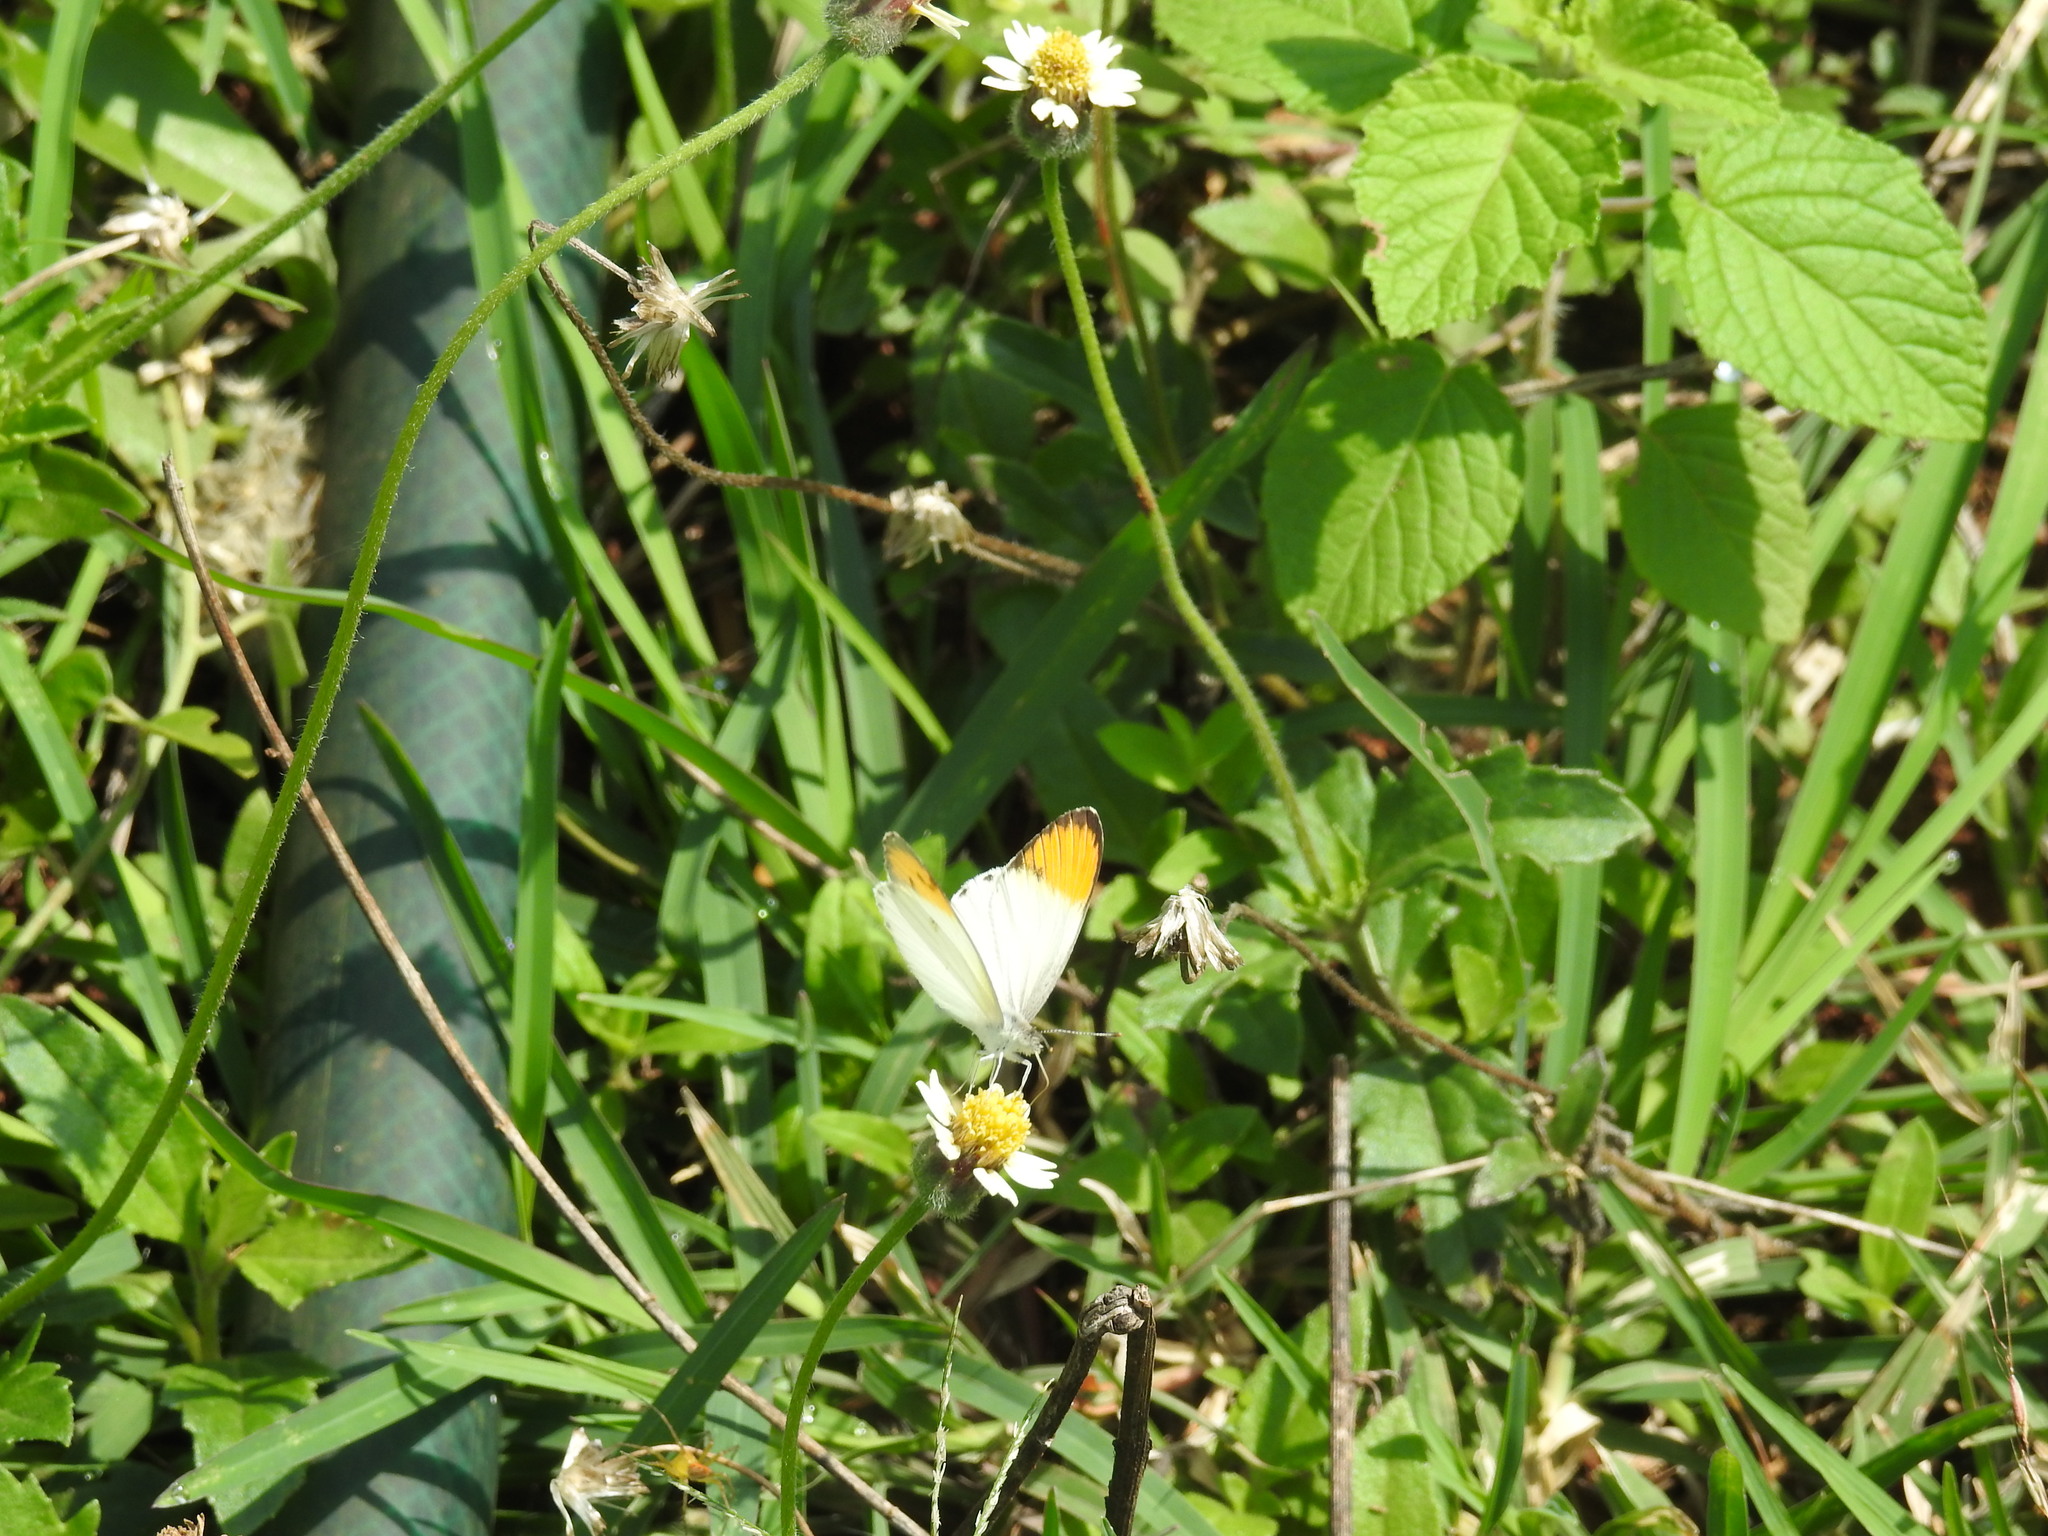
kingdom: Animalia
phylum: Arthropoda
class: Insecta
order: Lepidoptera
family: Pieridae
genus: Colotis
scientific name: Colotis aurora
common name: Plain orange-tip
